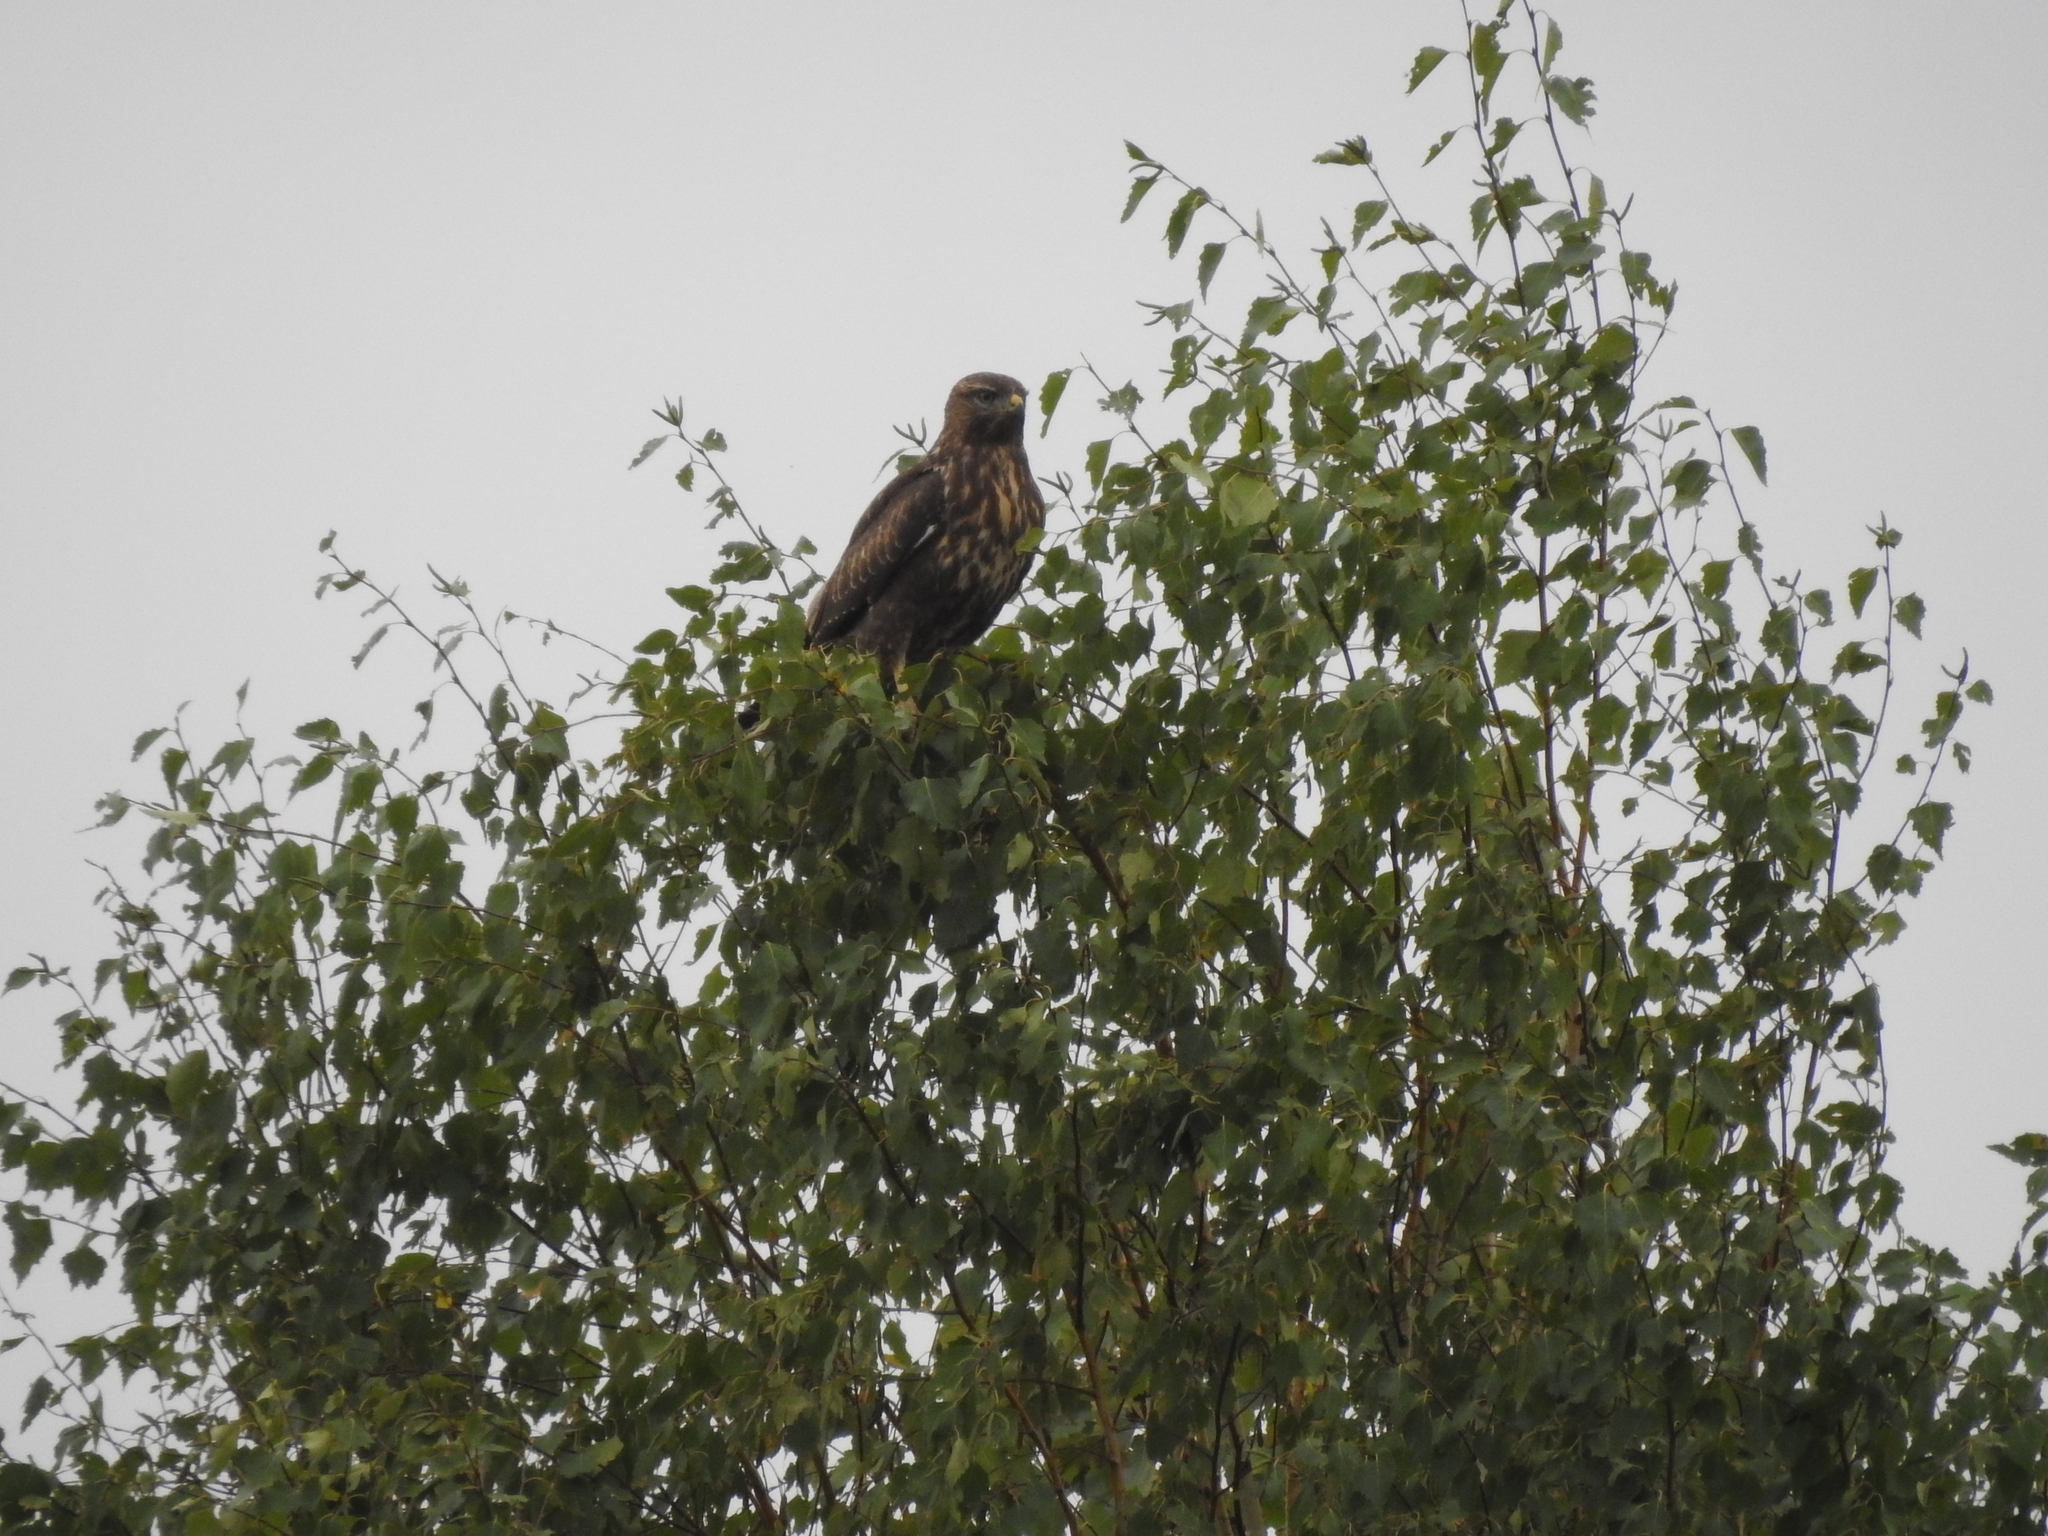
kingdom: Animalia
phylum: Chordata
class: Aves
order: Accipitriformes
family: Accipitridae
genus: Buteo
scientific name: Buteo buteo
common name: Common buzzard
